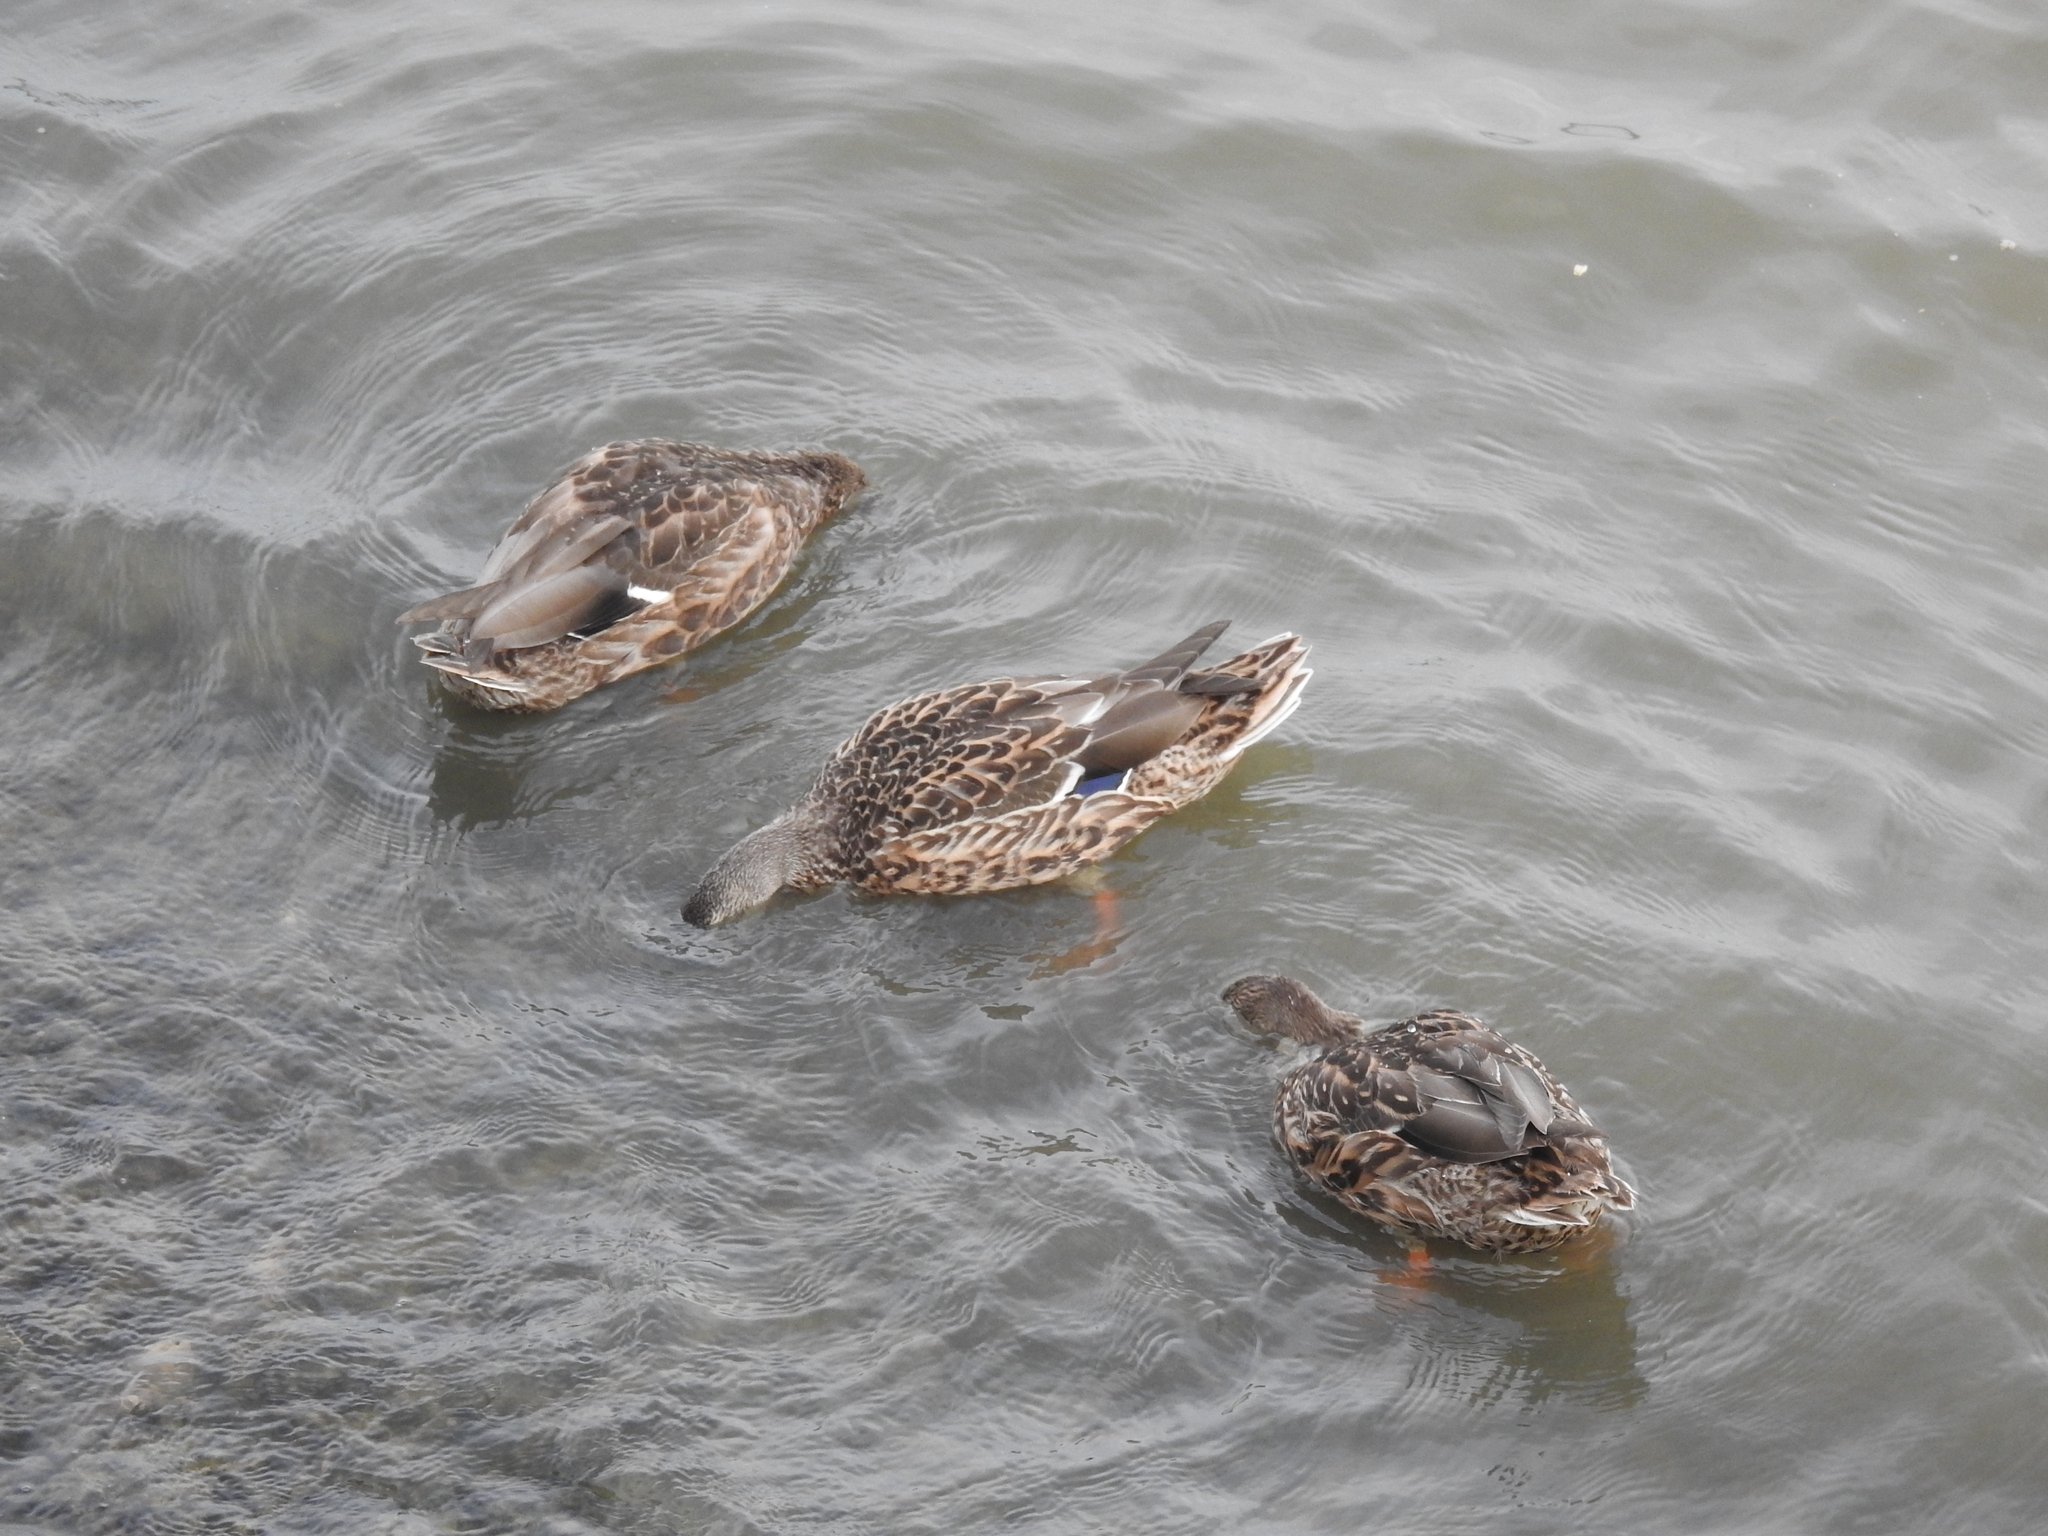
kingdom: Animalia
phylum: Chordata
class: Aves
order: Anseriformes
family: Anatidae
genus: Anas
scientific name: Anas platyrhynchos
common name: Mallard
